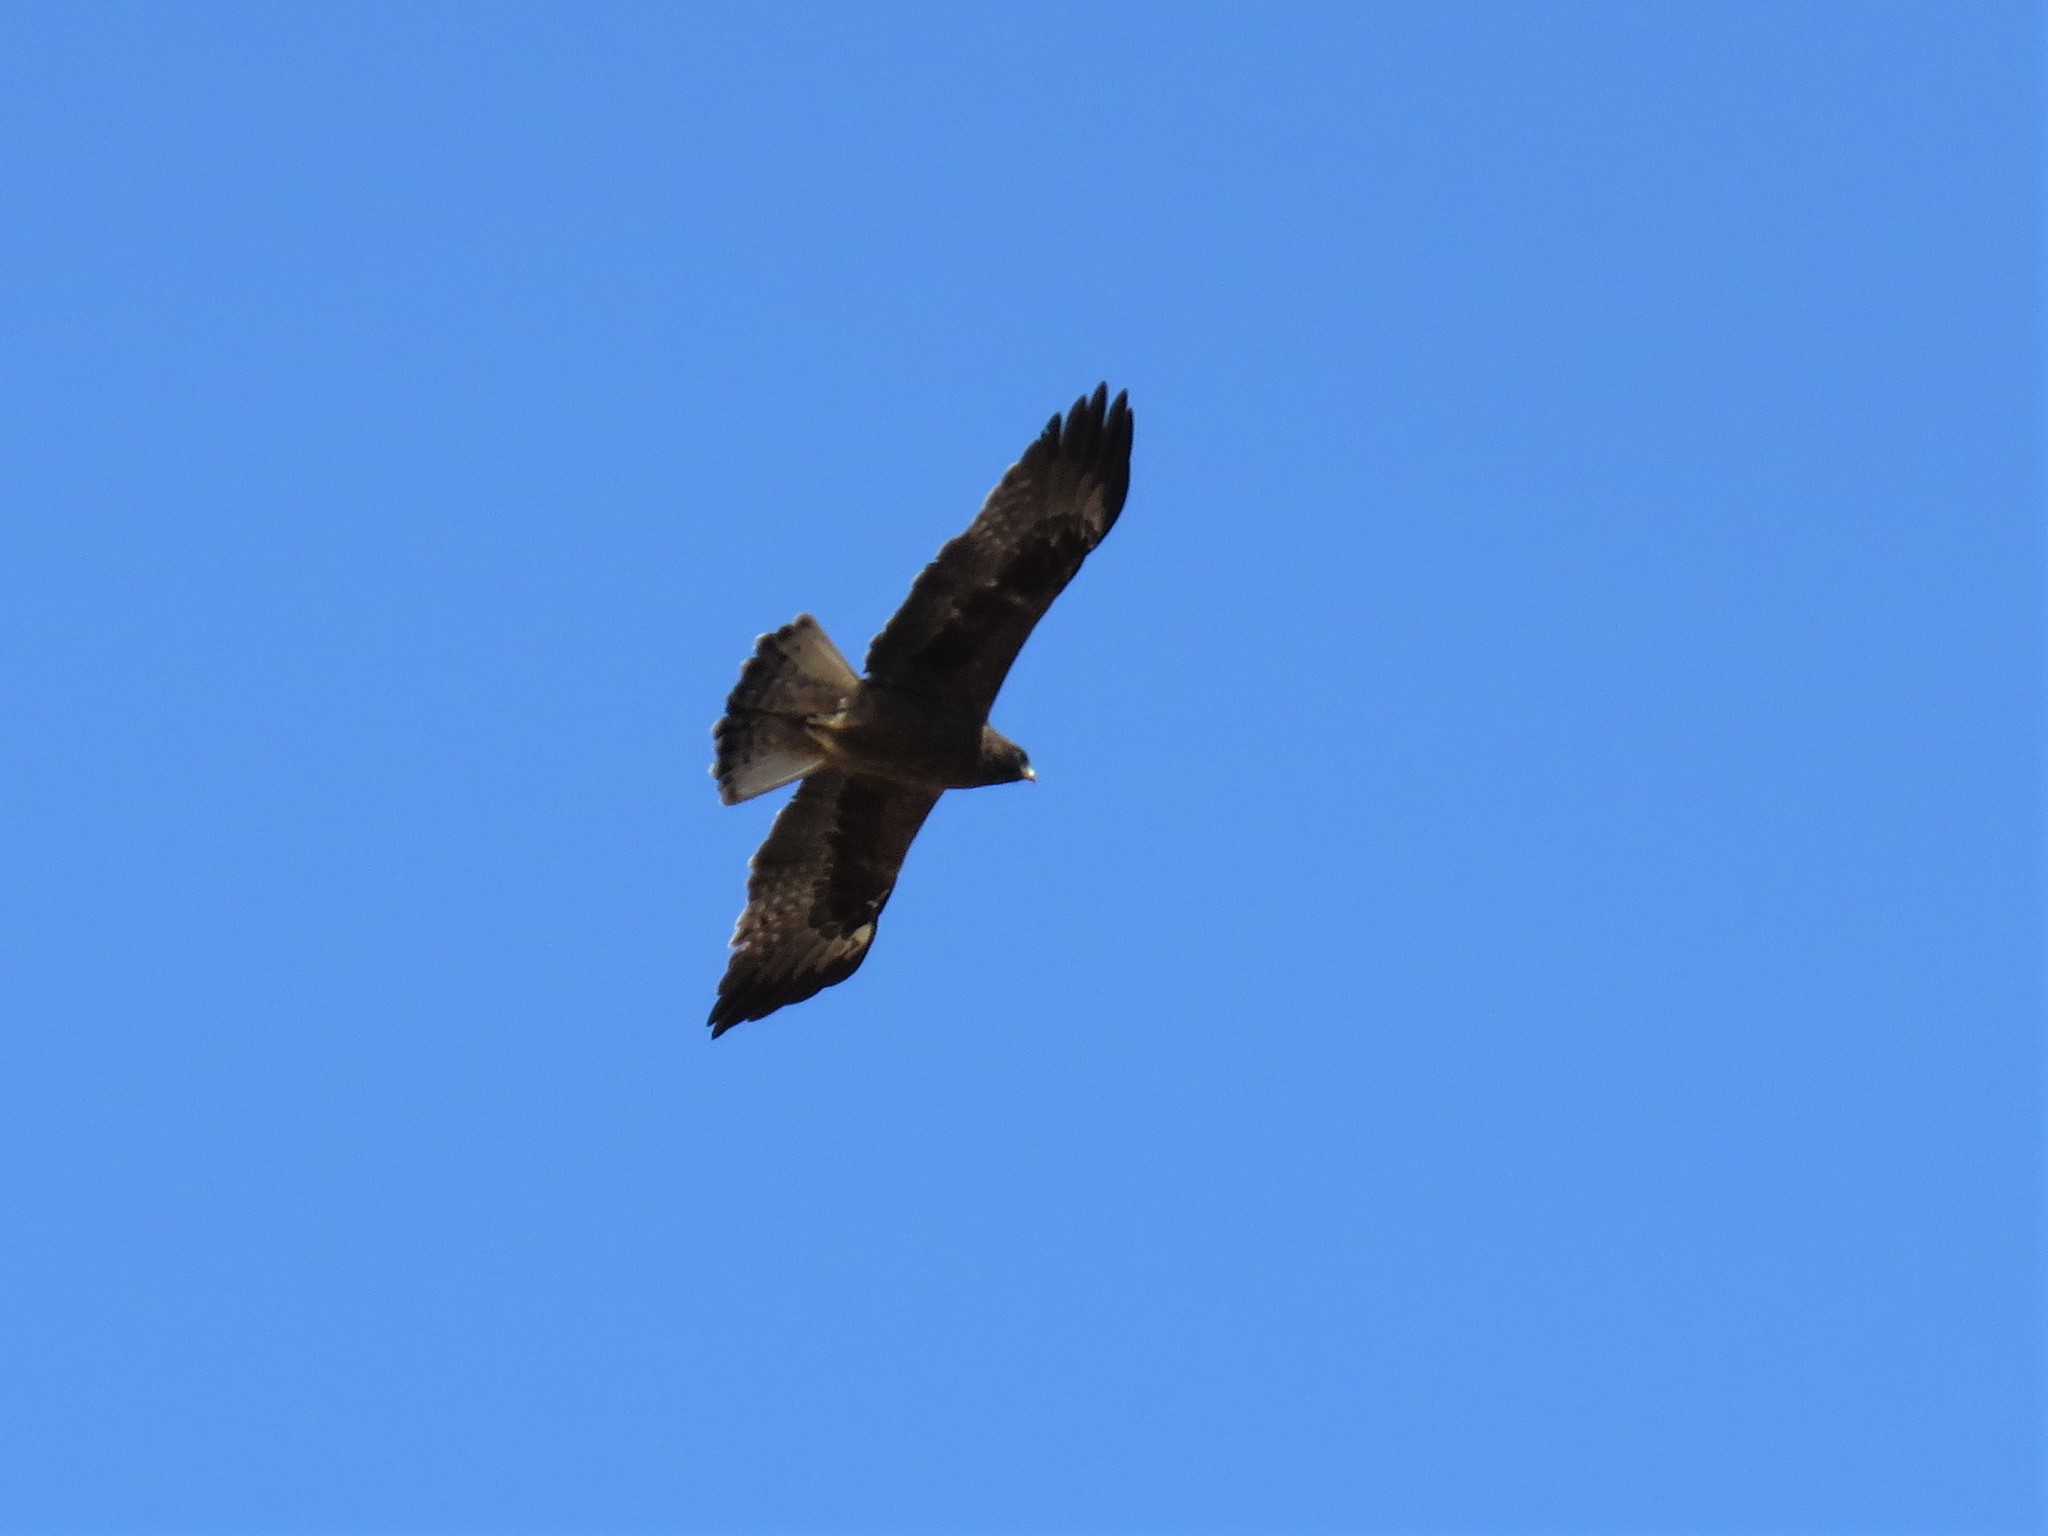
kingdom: Animalia
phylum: Chordata
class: Aves
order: Accipitriformes
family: Accipitridae
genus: Hieraaetus
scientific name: Hieraaetus pennatus
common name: Booted eagle
